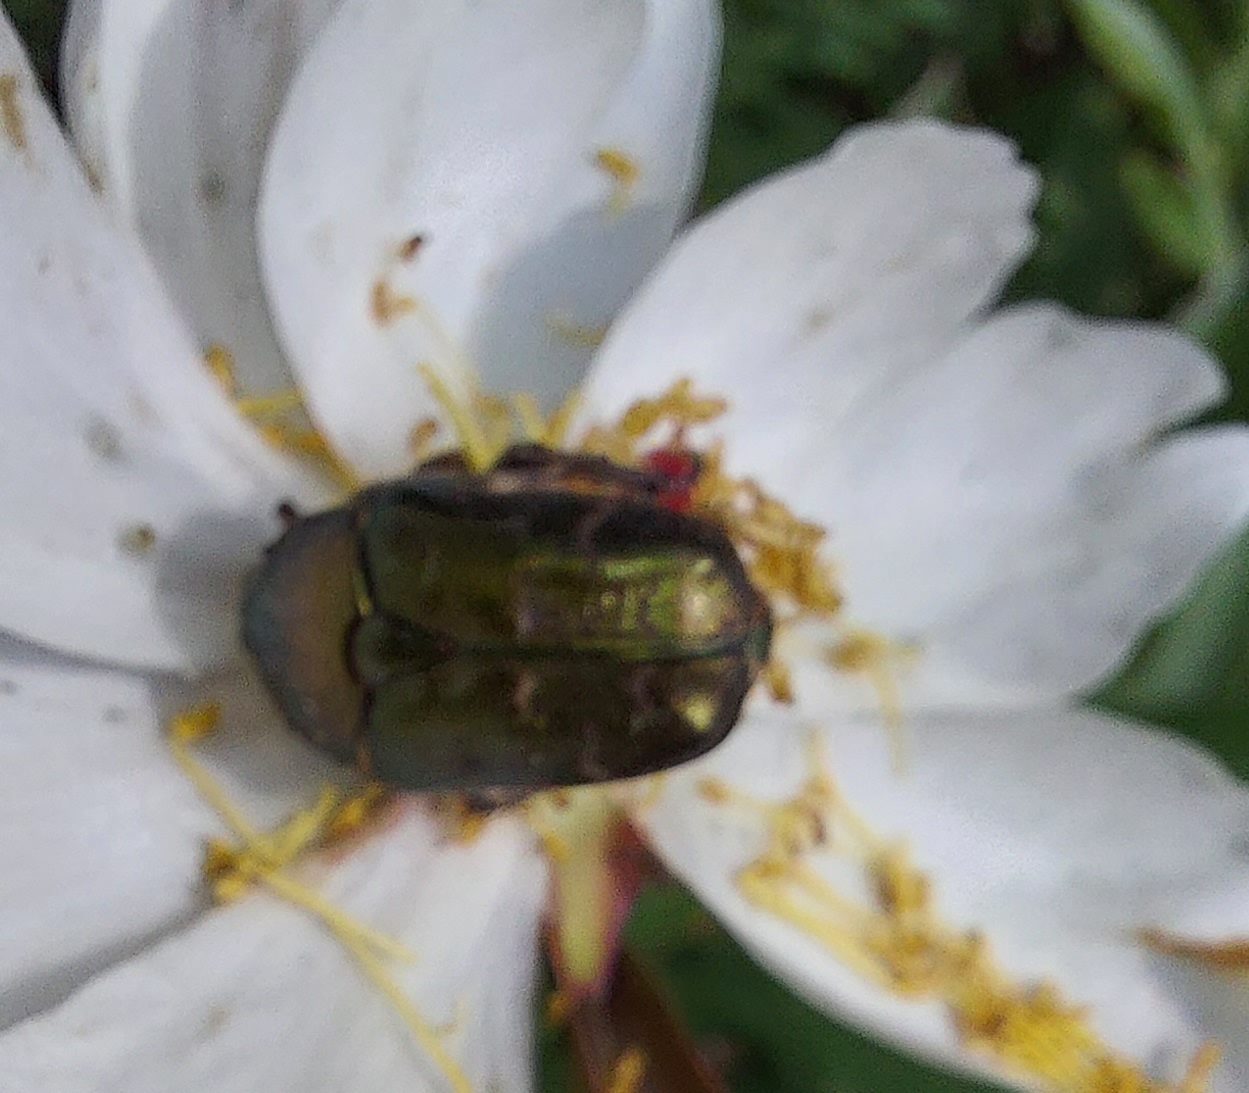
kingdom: Animalia
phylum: Arthropoda
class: Insecta
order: Coleoptera
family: Scarabaeidae
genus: Protaetia
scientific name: Protaetia cuprea
